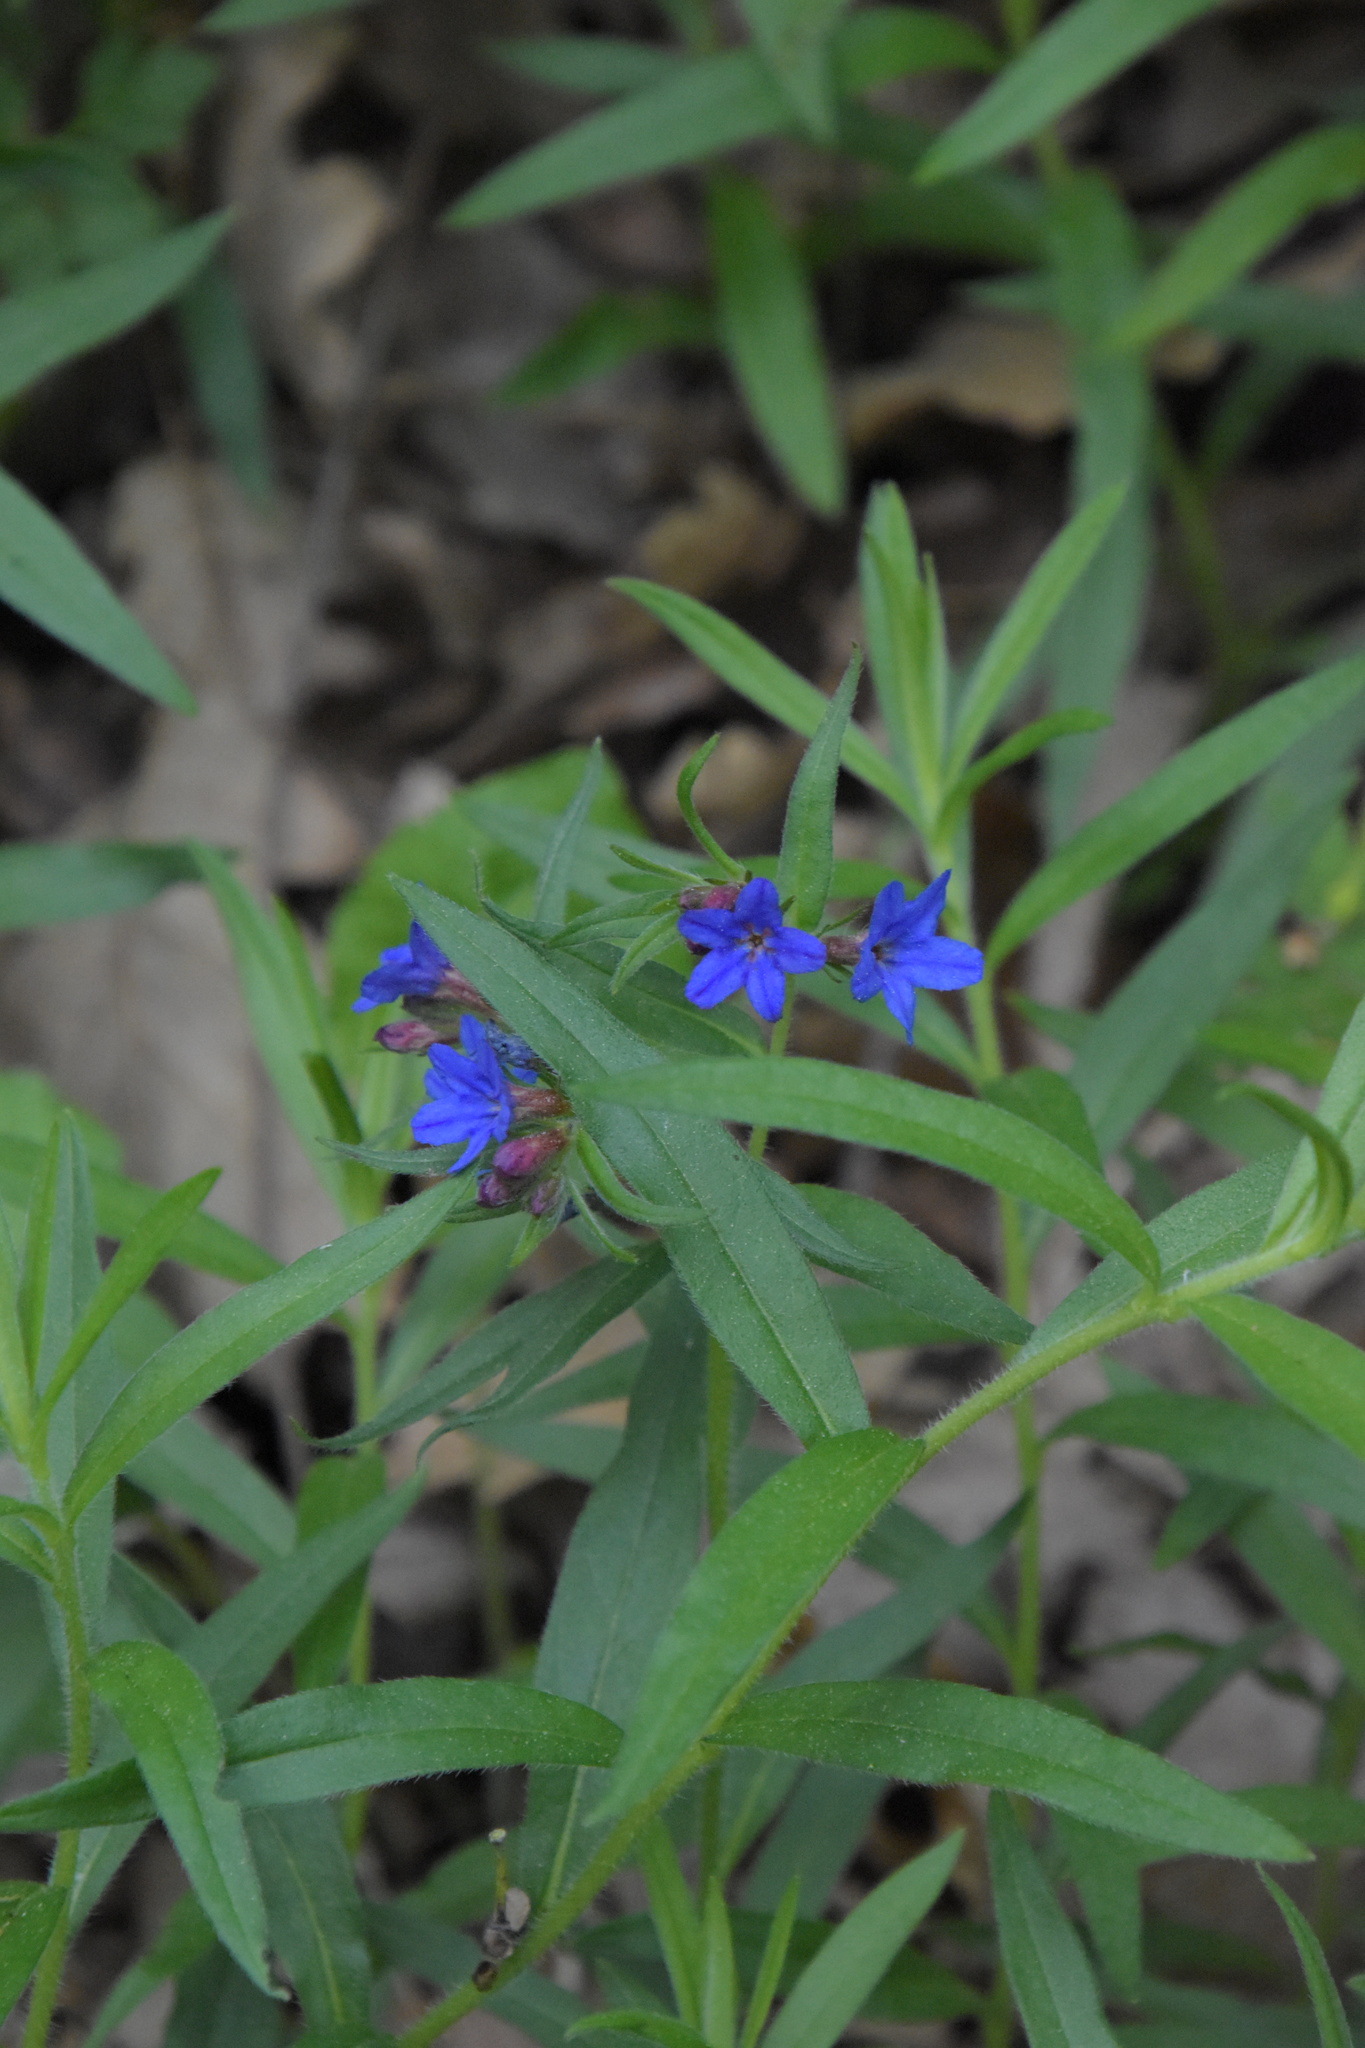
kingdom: Plantae
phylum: Tracheophyta
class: Magnoliopsida
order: Boraginales
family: Boraginaceae
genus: Aegonychon
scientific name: Aegonychon purpurocaeruleum
